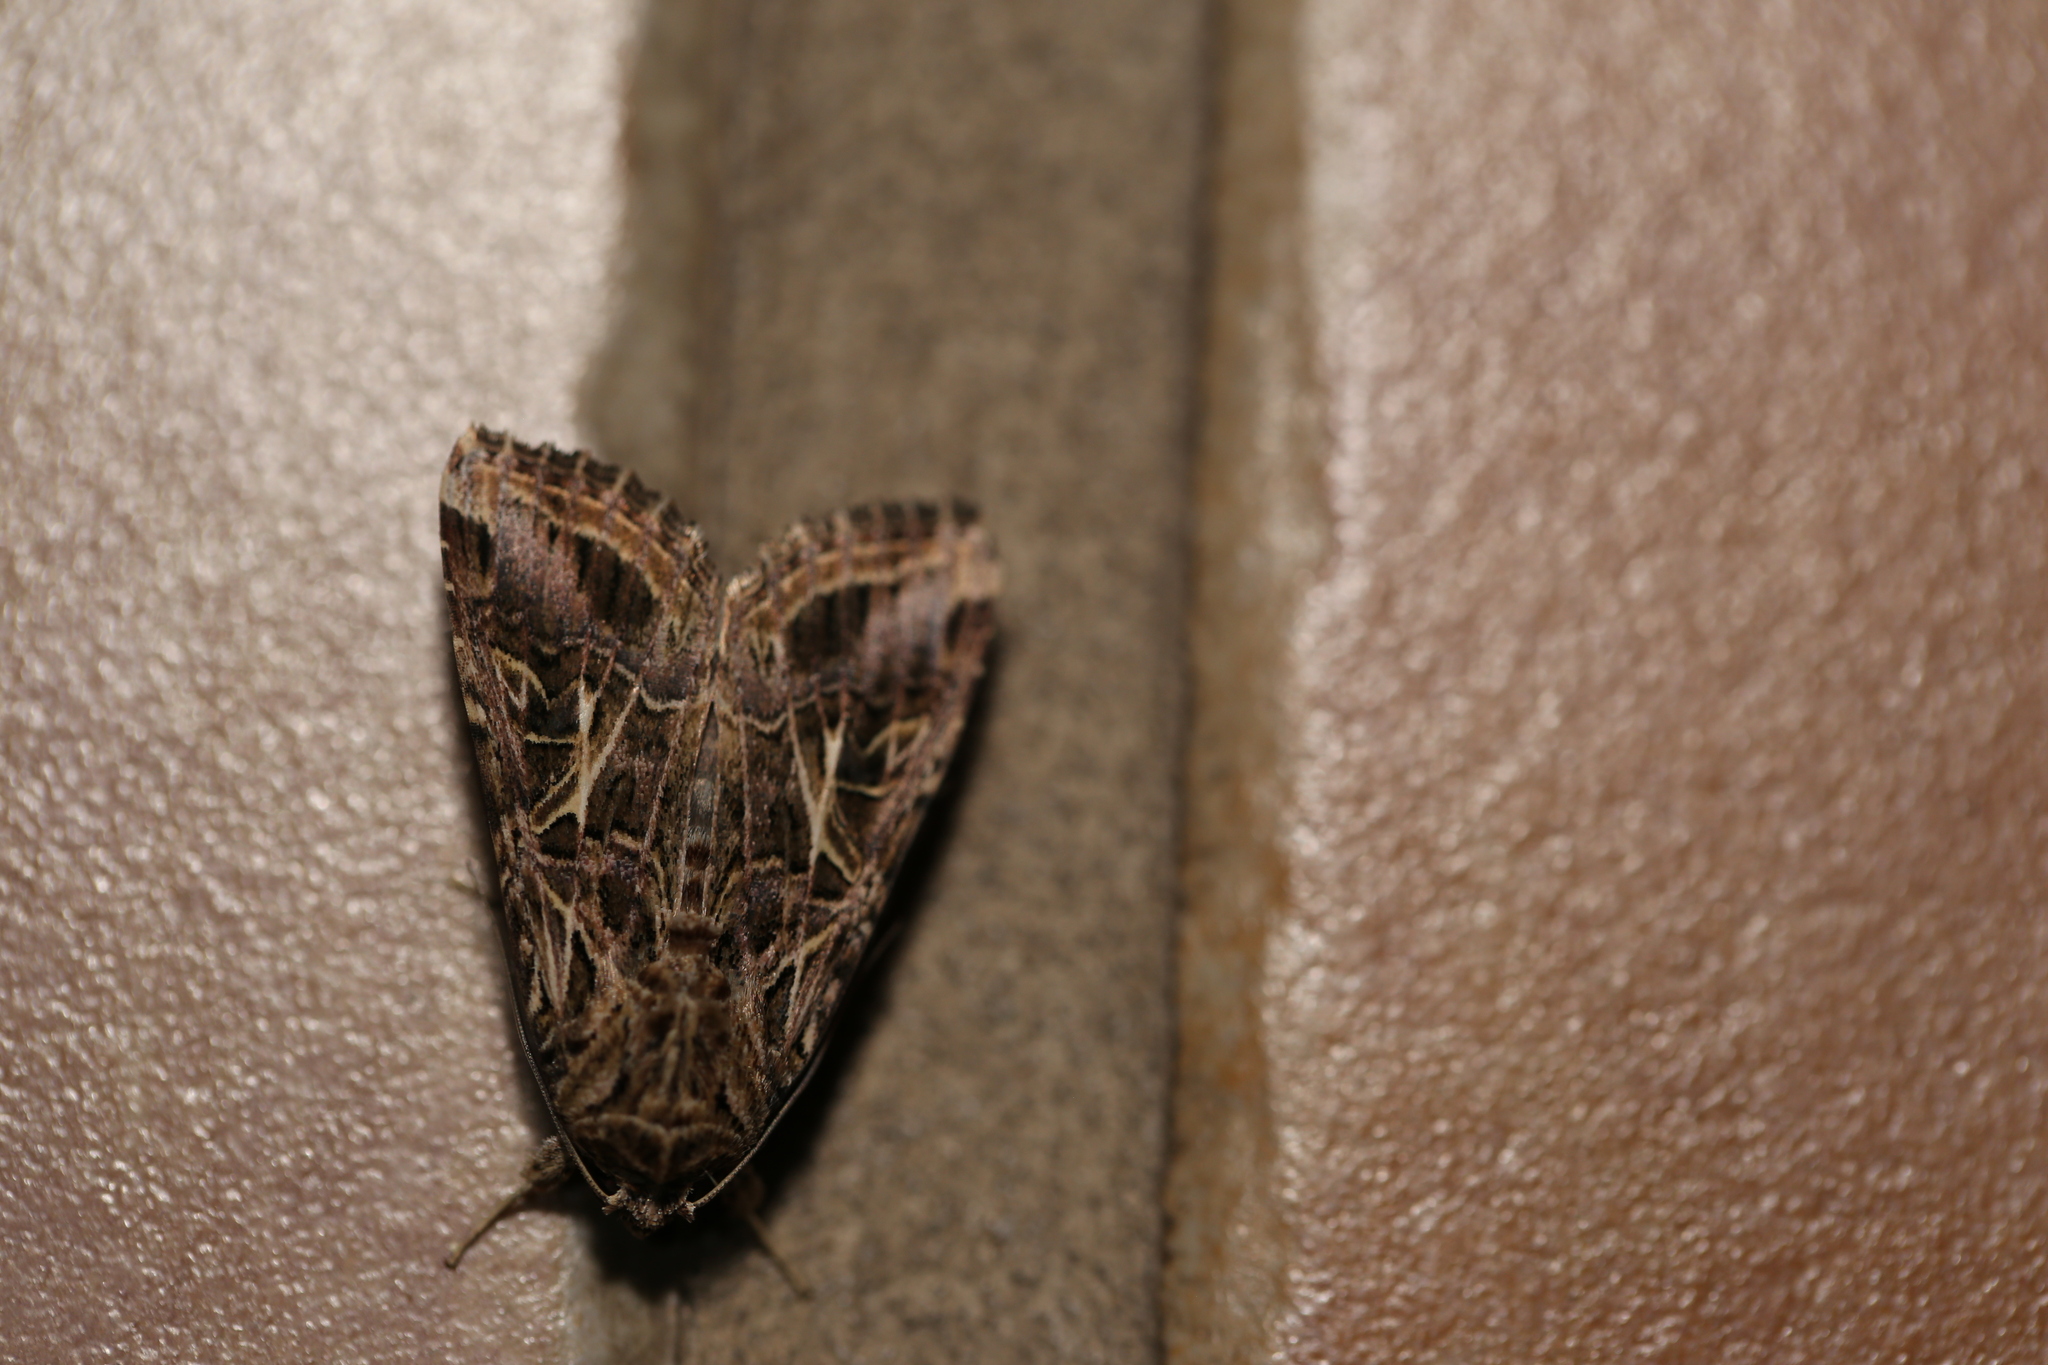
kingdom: Animalia
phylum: Arthropoda
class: Insecta
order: Lepidoptera
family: Noctuidae
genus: Spodoptera
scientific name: Spodoptera litura
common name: Asian cotton leafworm
